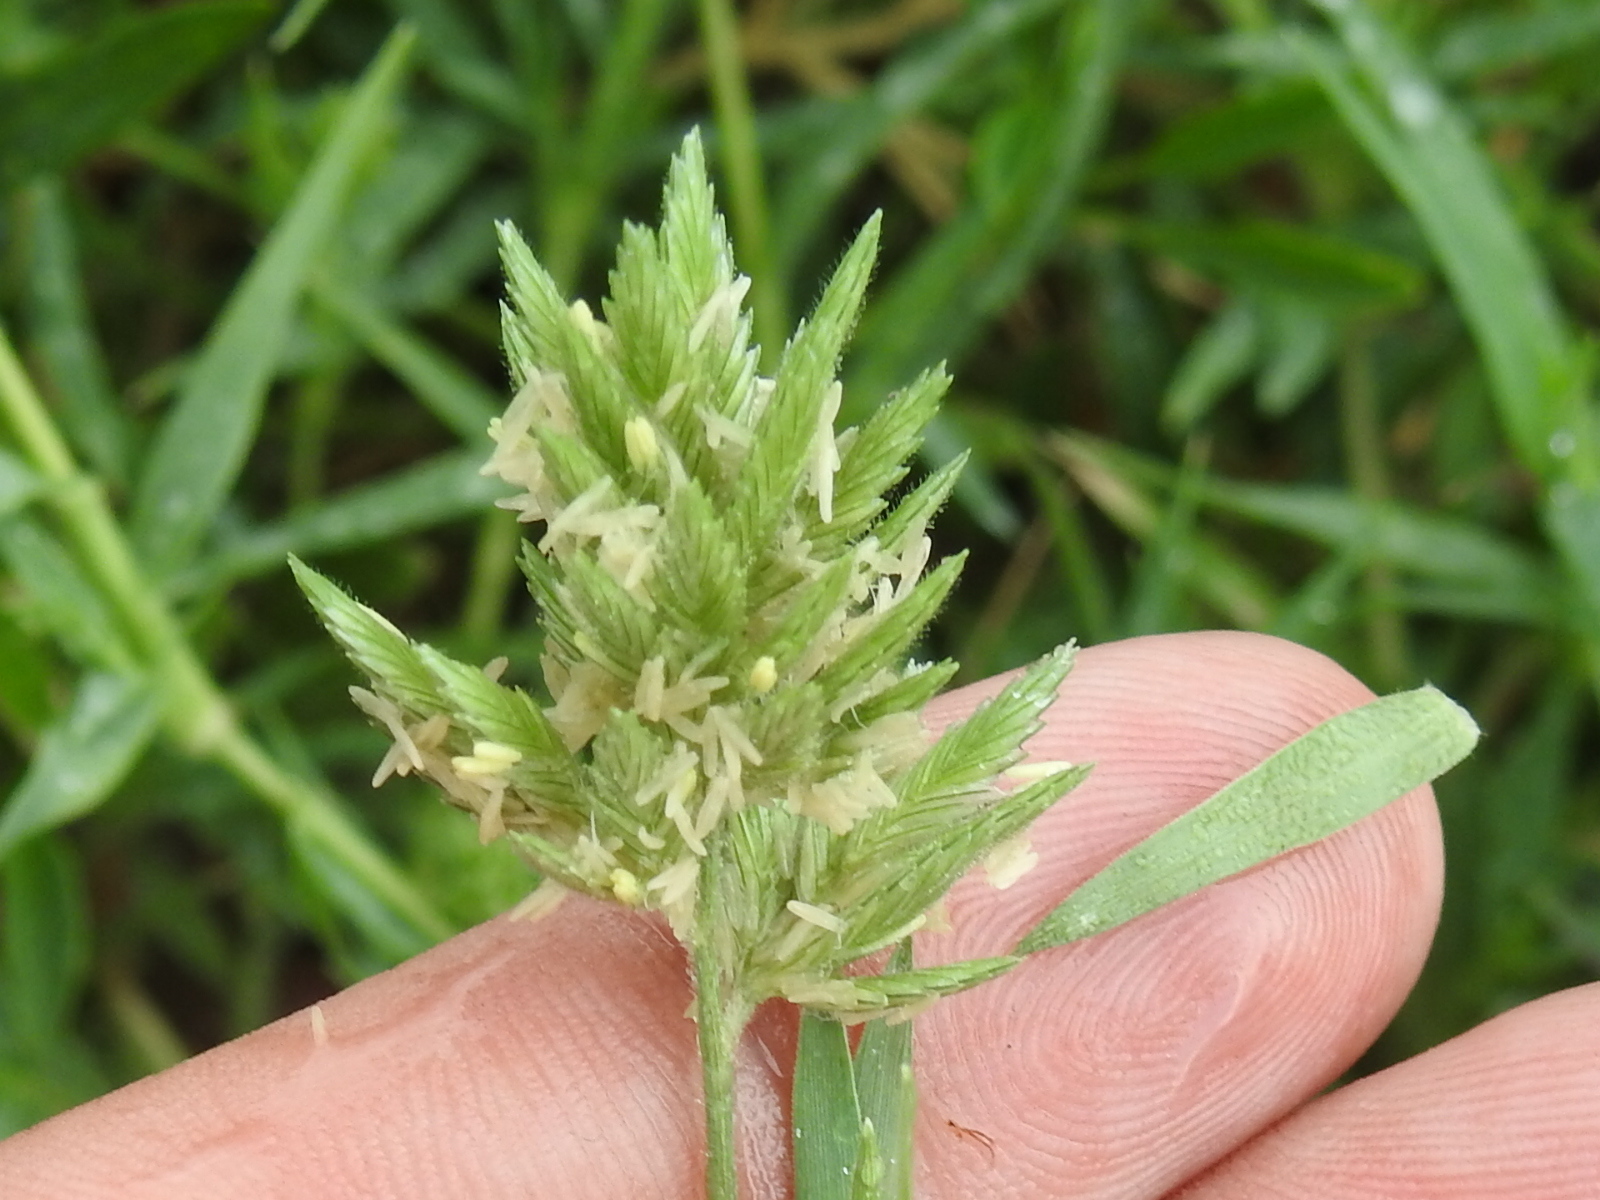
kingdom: Plantae
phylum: Tracheophyta
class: Liliopsida
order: Poales
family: Poaceae
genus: Eragrostis
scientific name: Eragrostis reptans
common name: Creeping love grass
